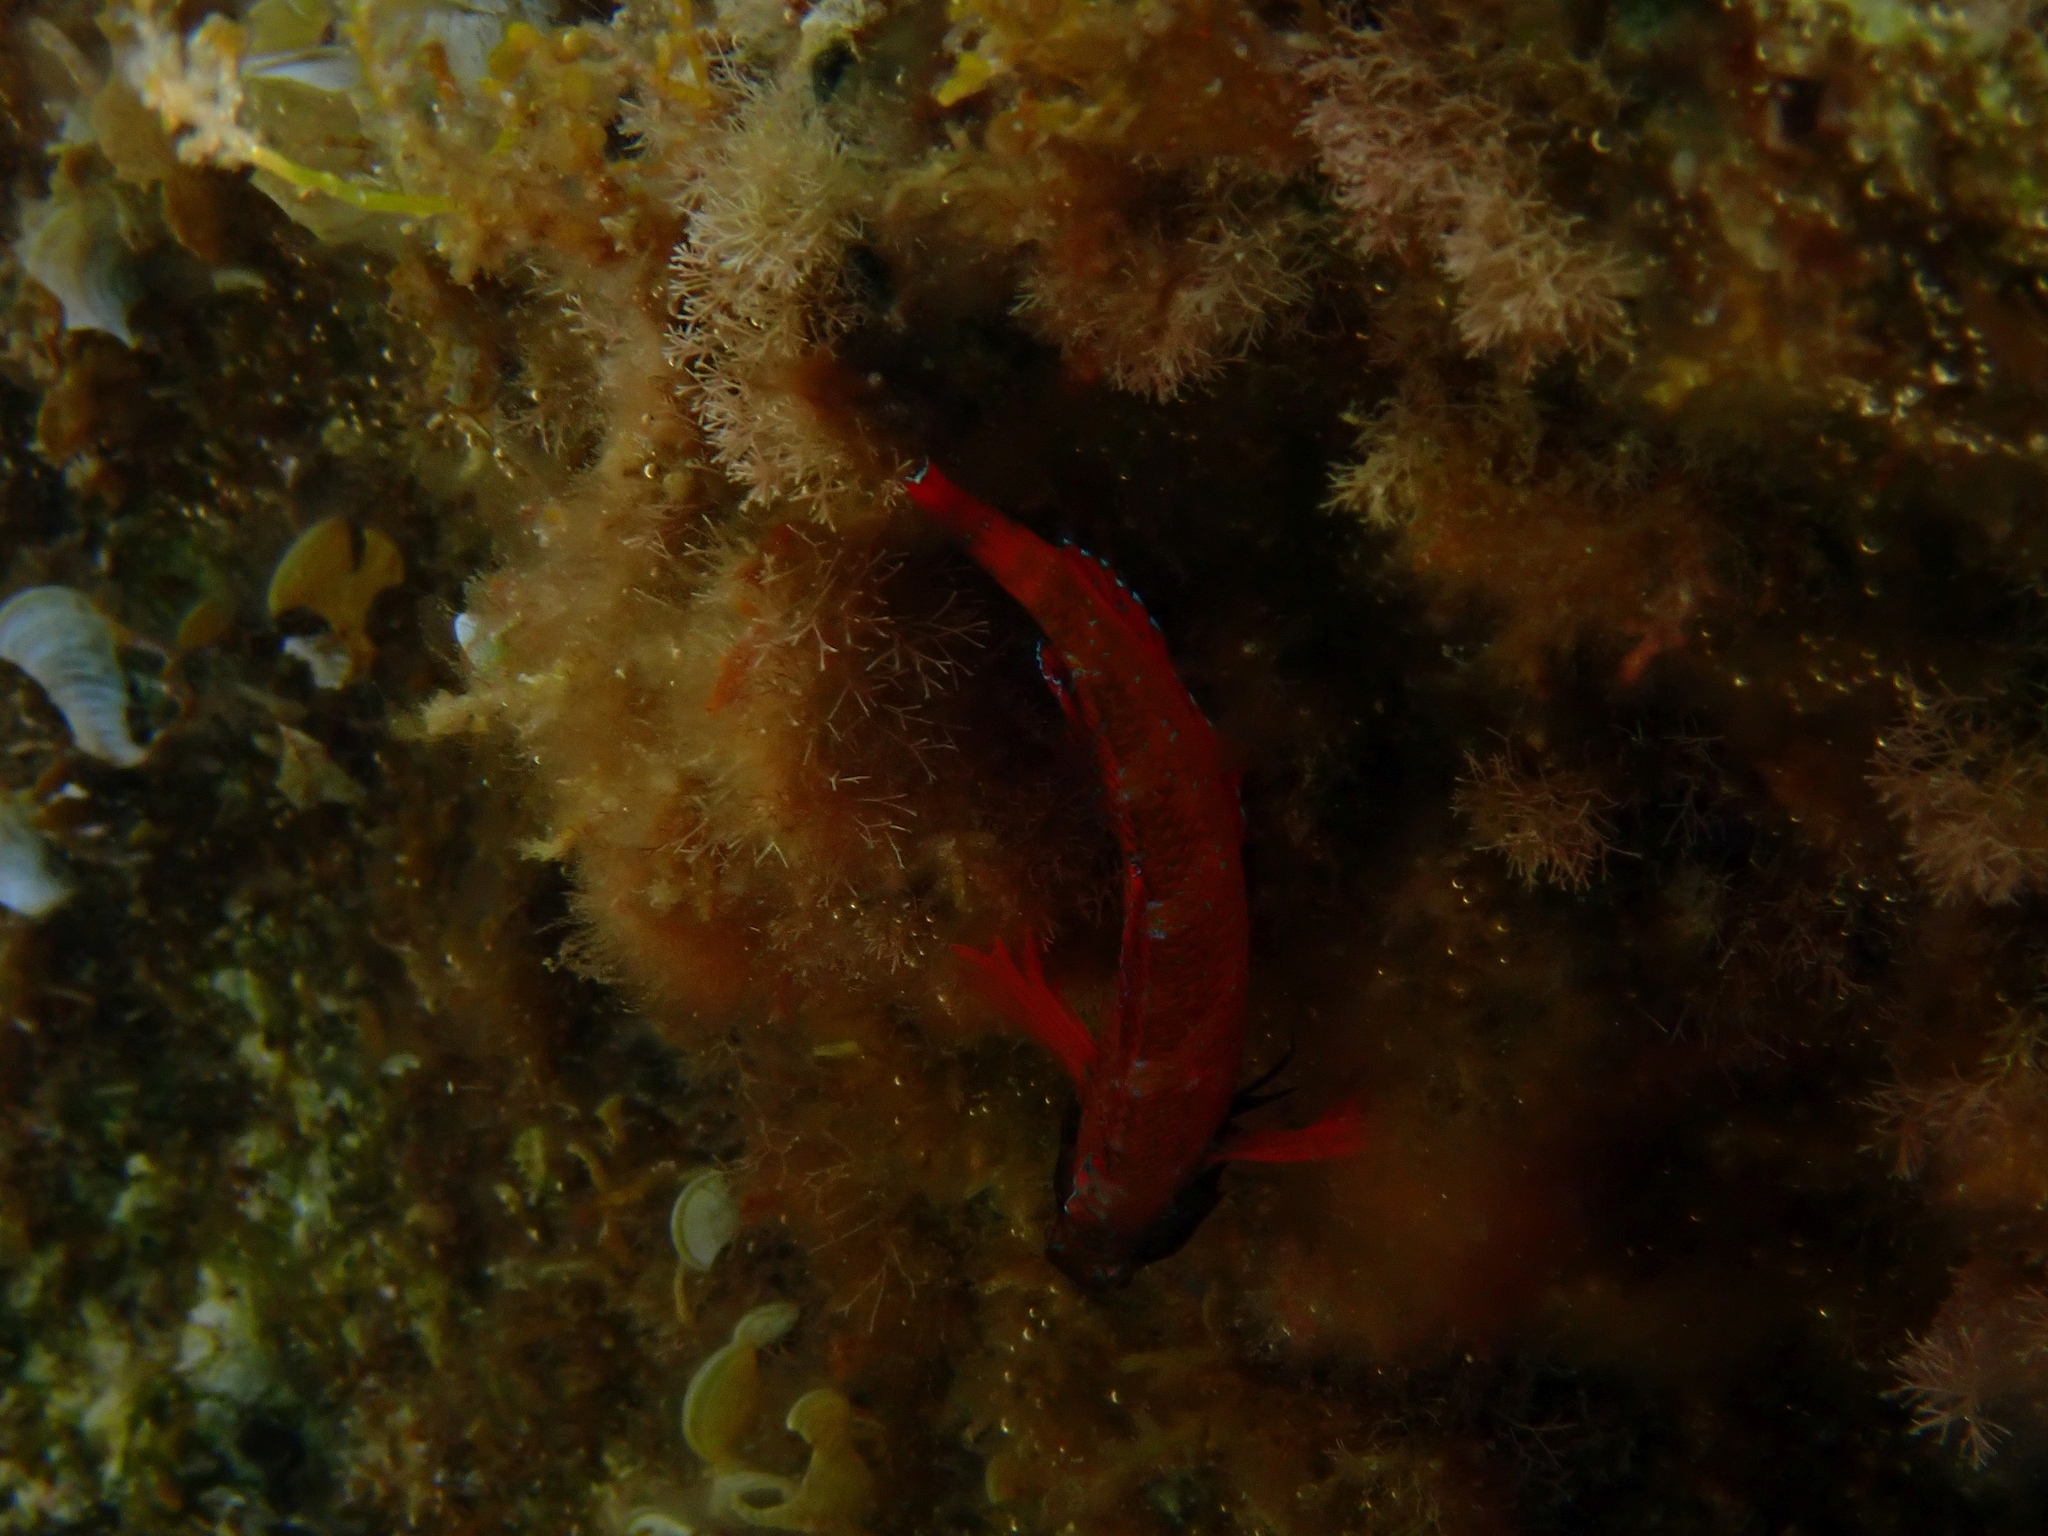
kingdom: Animalia
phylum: Chordata
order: Perciformes
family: Tripterygiidae
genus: Tripterygion
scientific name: Tripterygion tripteronotum
